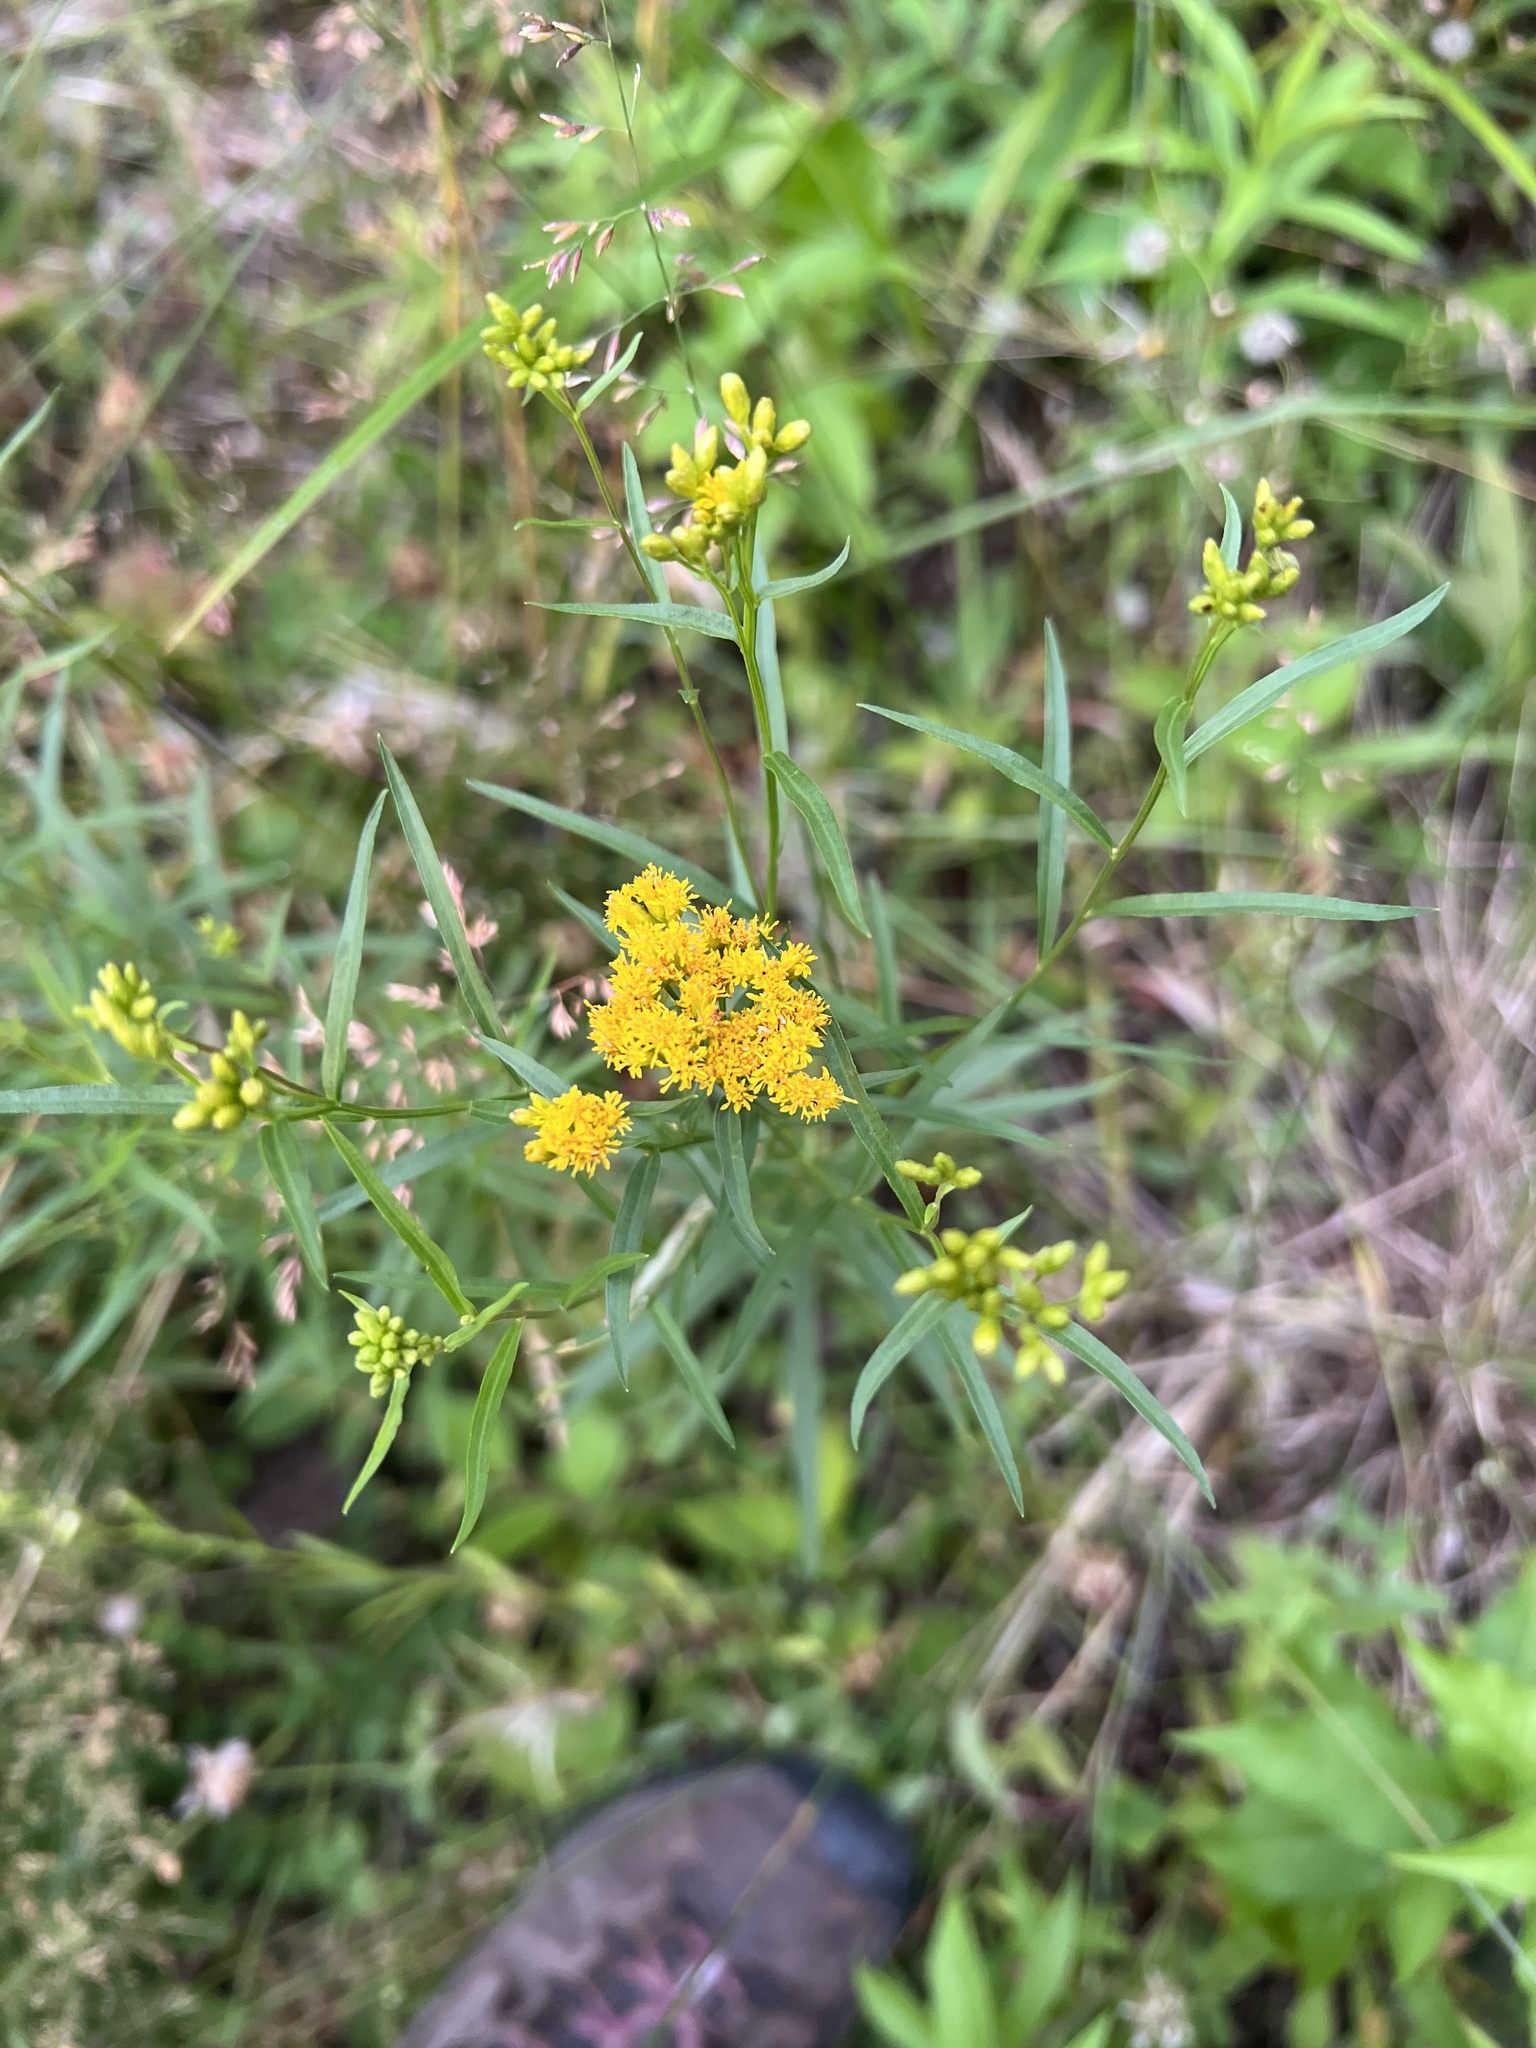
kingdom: Plantae
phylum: Tracheophyta
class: Magnoliopsida
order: Asterales
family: Asteraceae
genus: Euthamia
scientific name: Euthamia graminifolia
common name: Common goldentop
